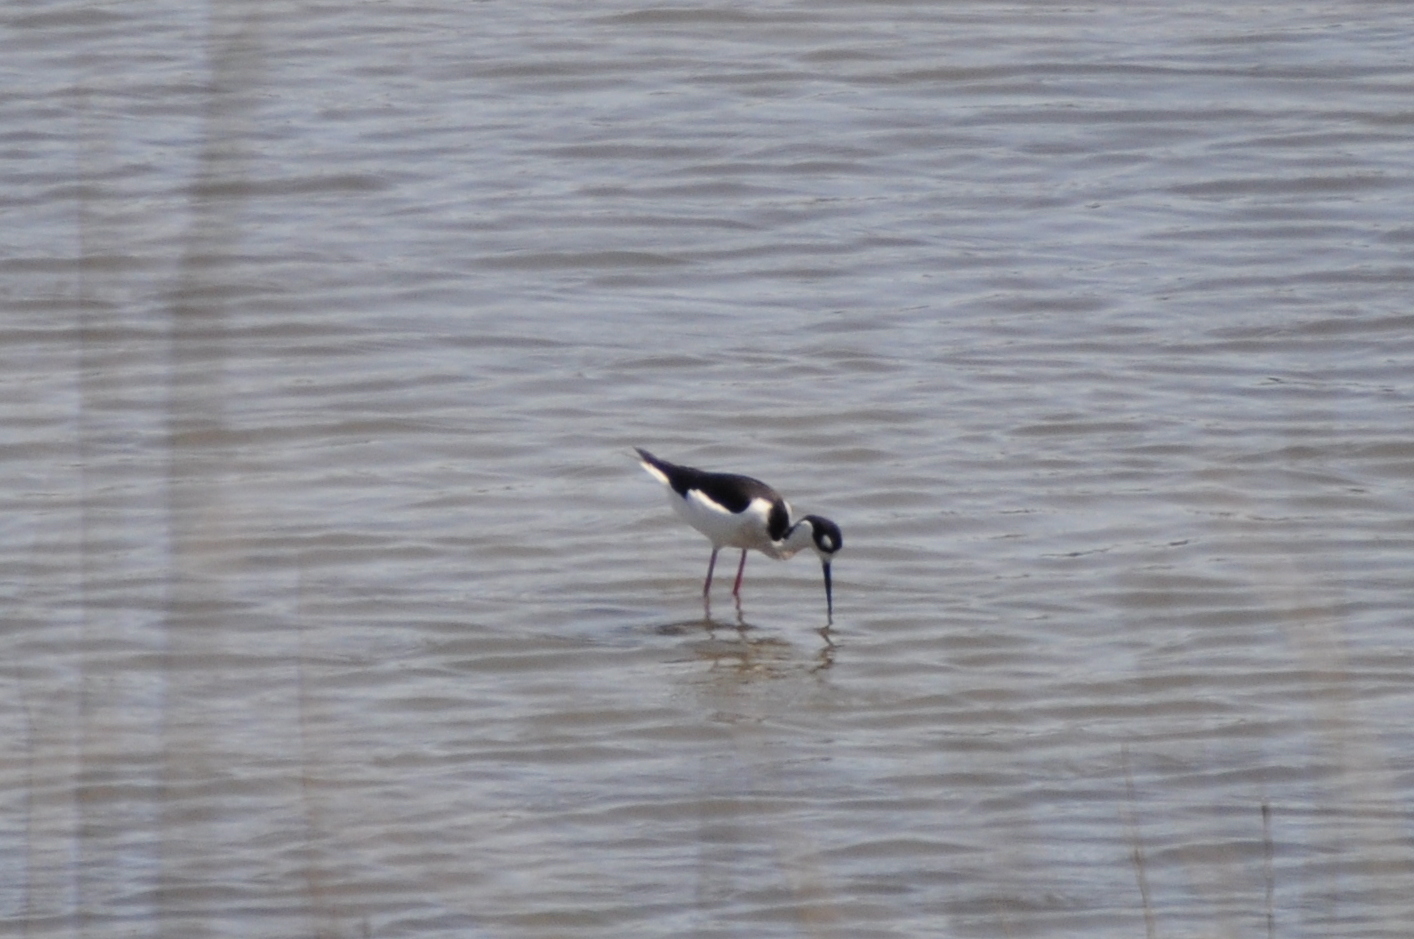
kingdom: Animalia
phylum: Chordata
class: Aves
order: Charadriiformes
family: Recurvirostridae
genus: Himantopus
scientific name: Himantopus mexicanus
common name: Black-necked stilt
